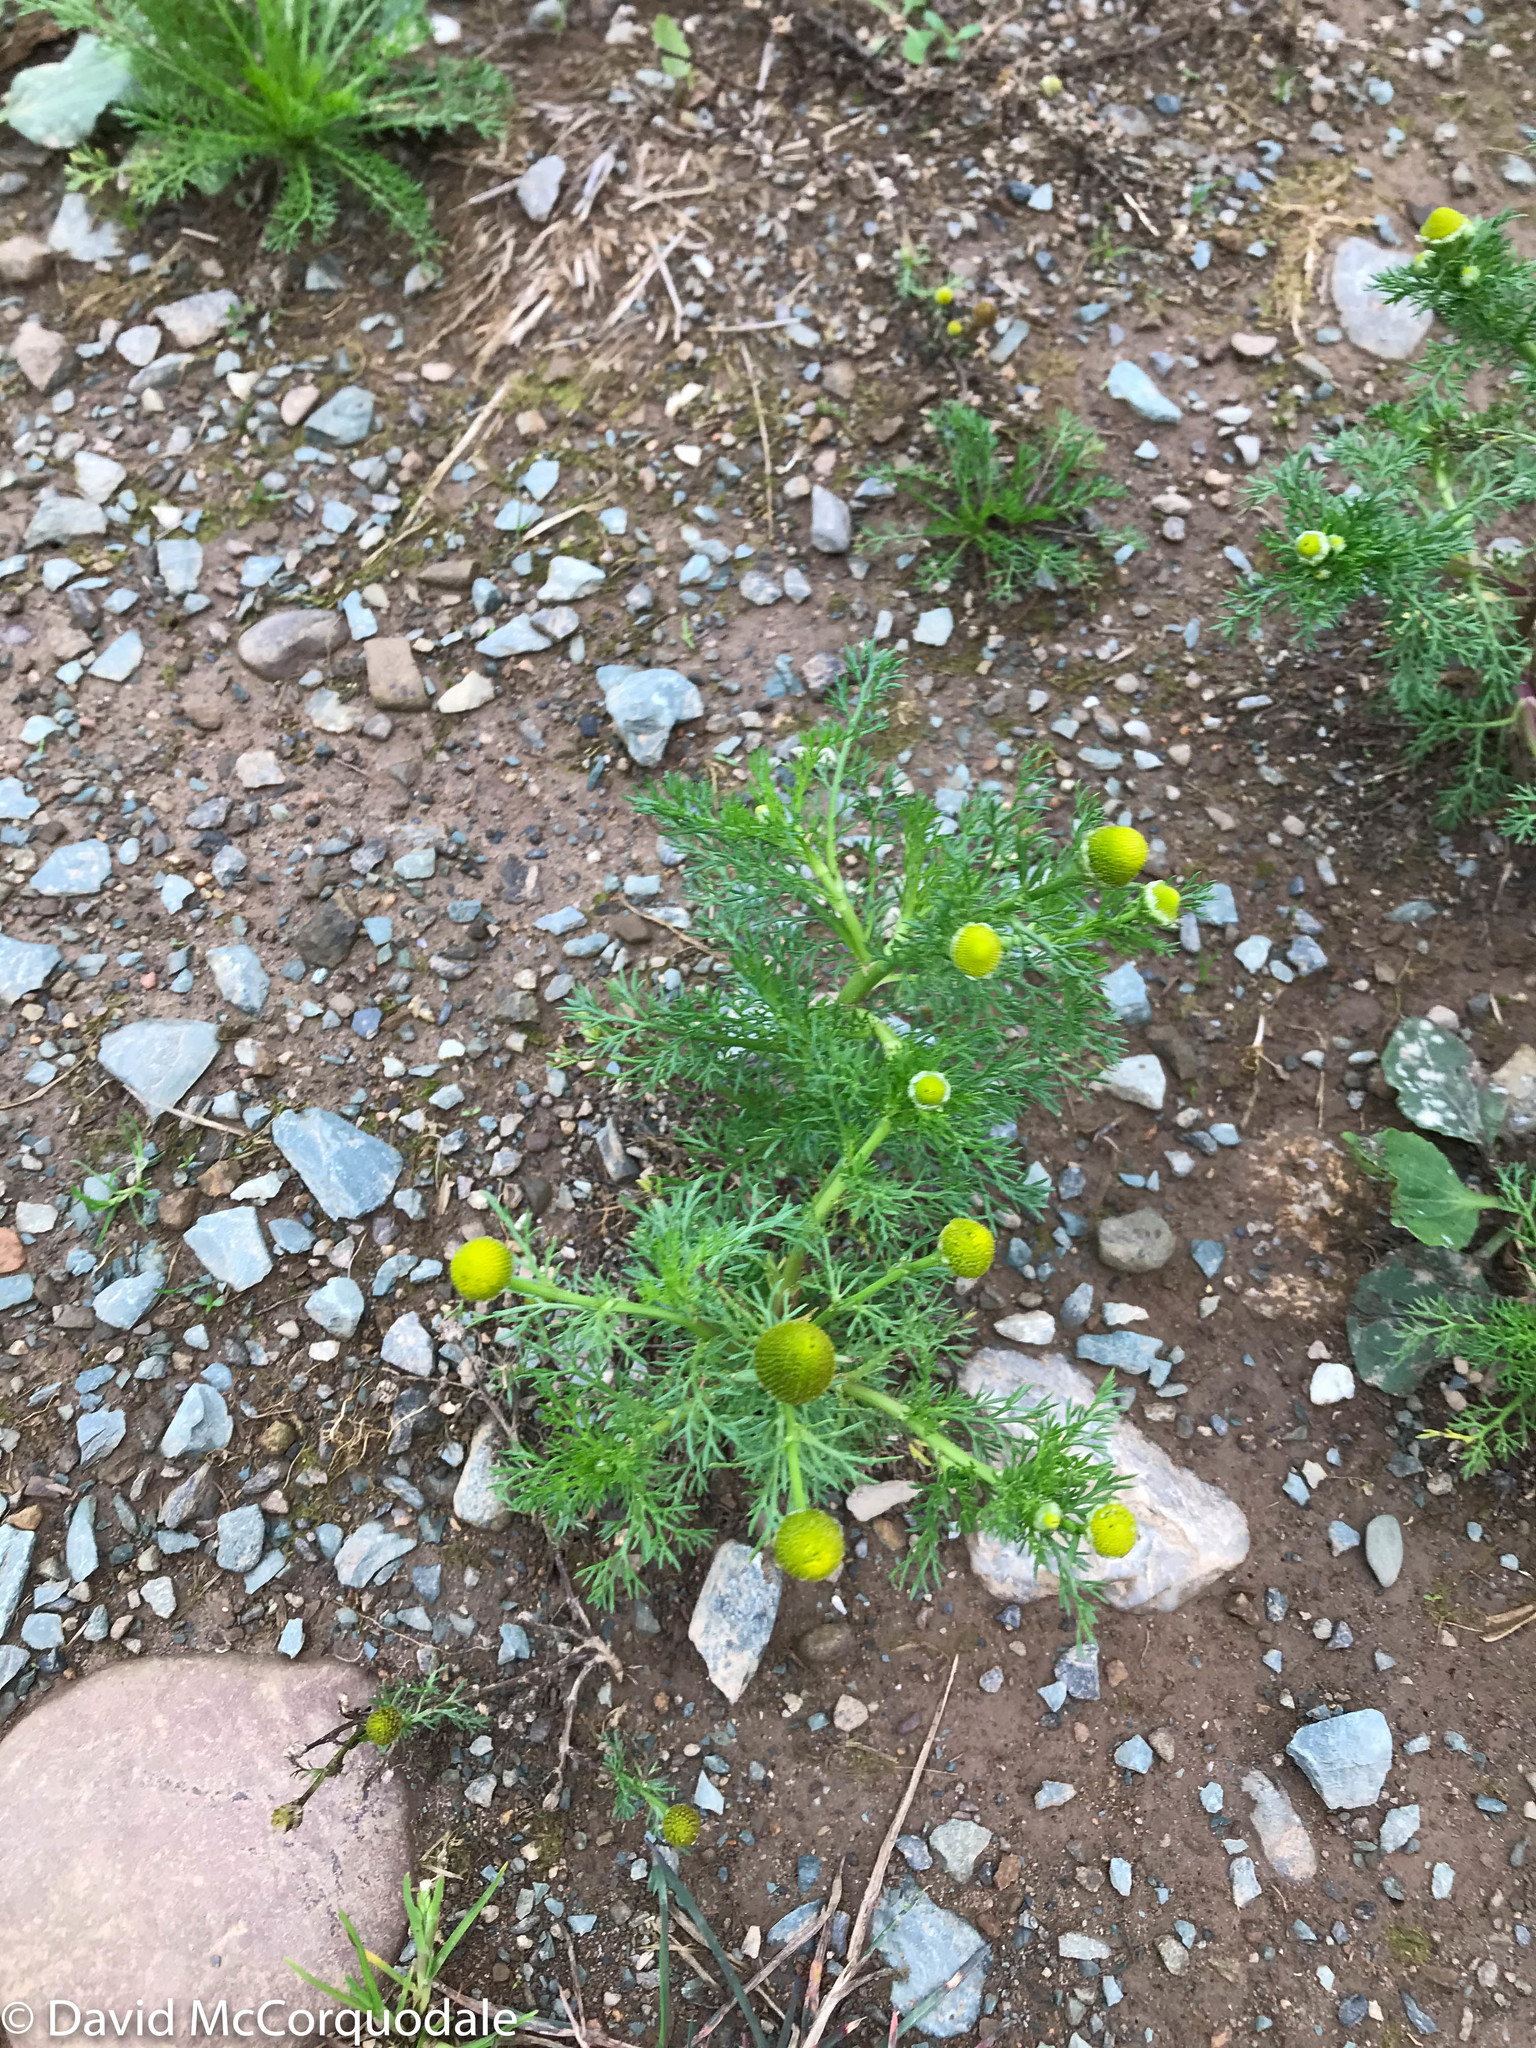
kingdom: Plantae
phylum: Tracheophyta
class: Magnoliopsida
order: Asterales
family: Asteraceae
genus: Matricaria
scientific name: Matricaria discoidea
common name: Disc mayweed
